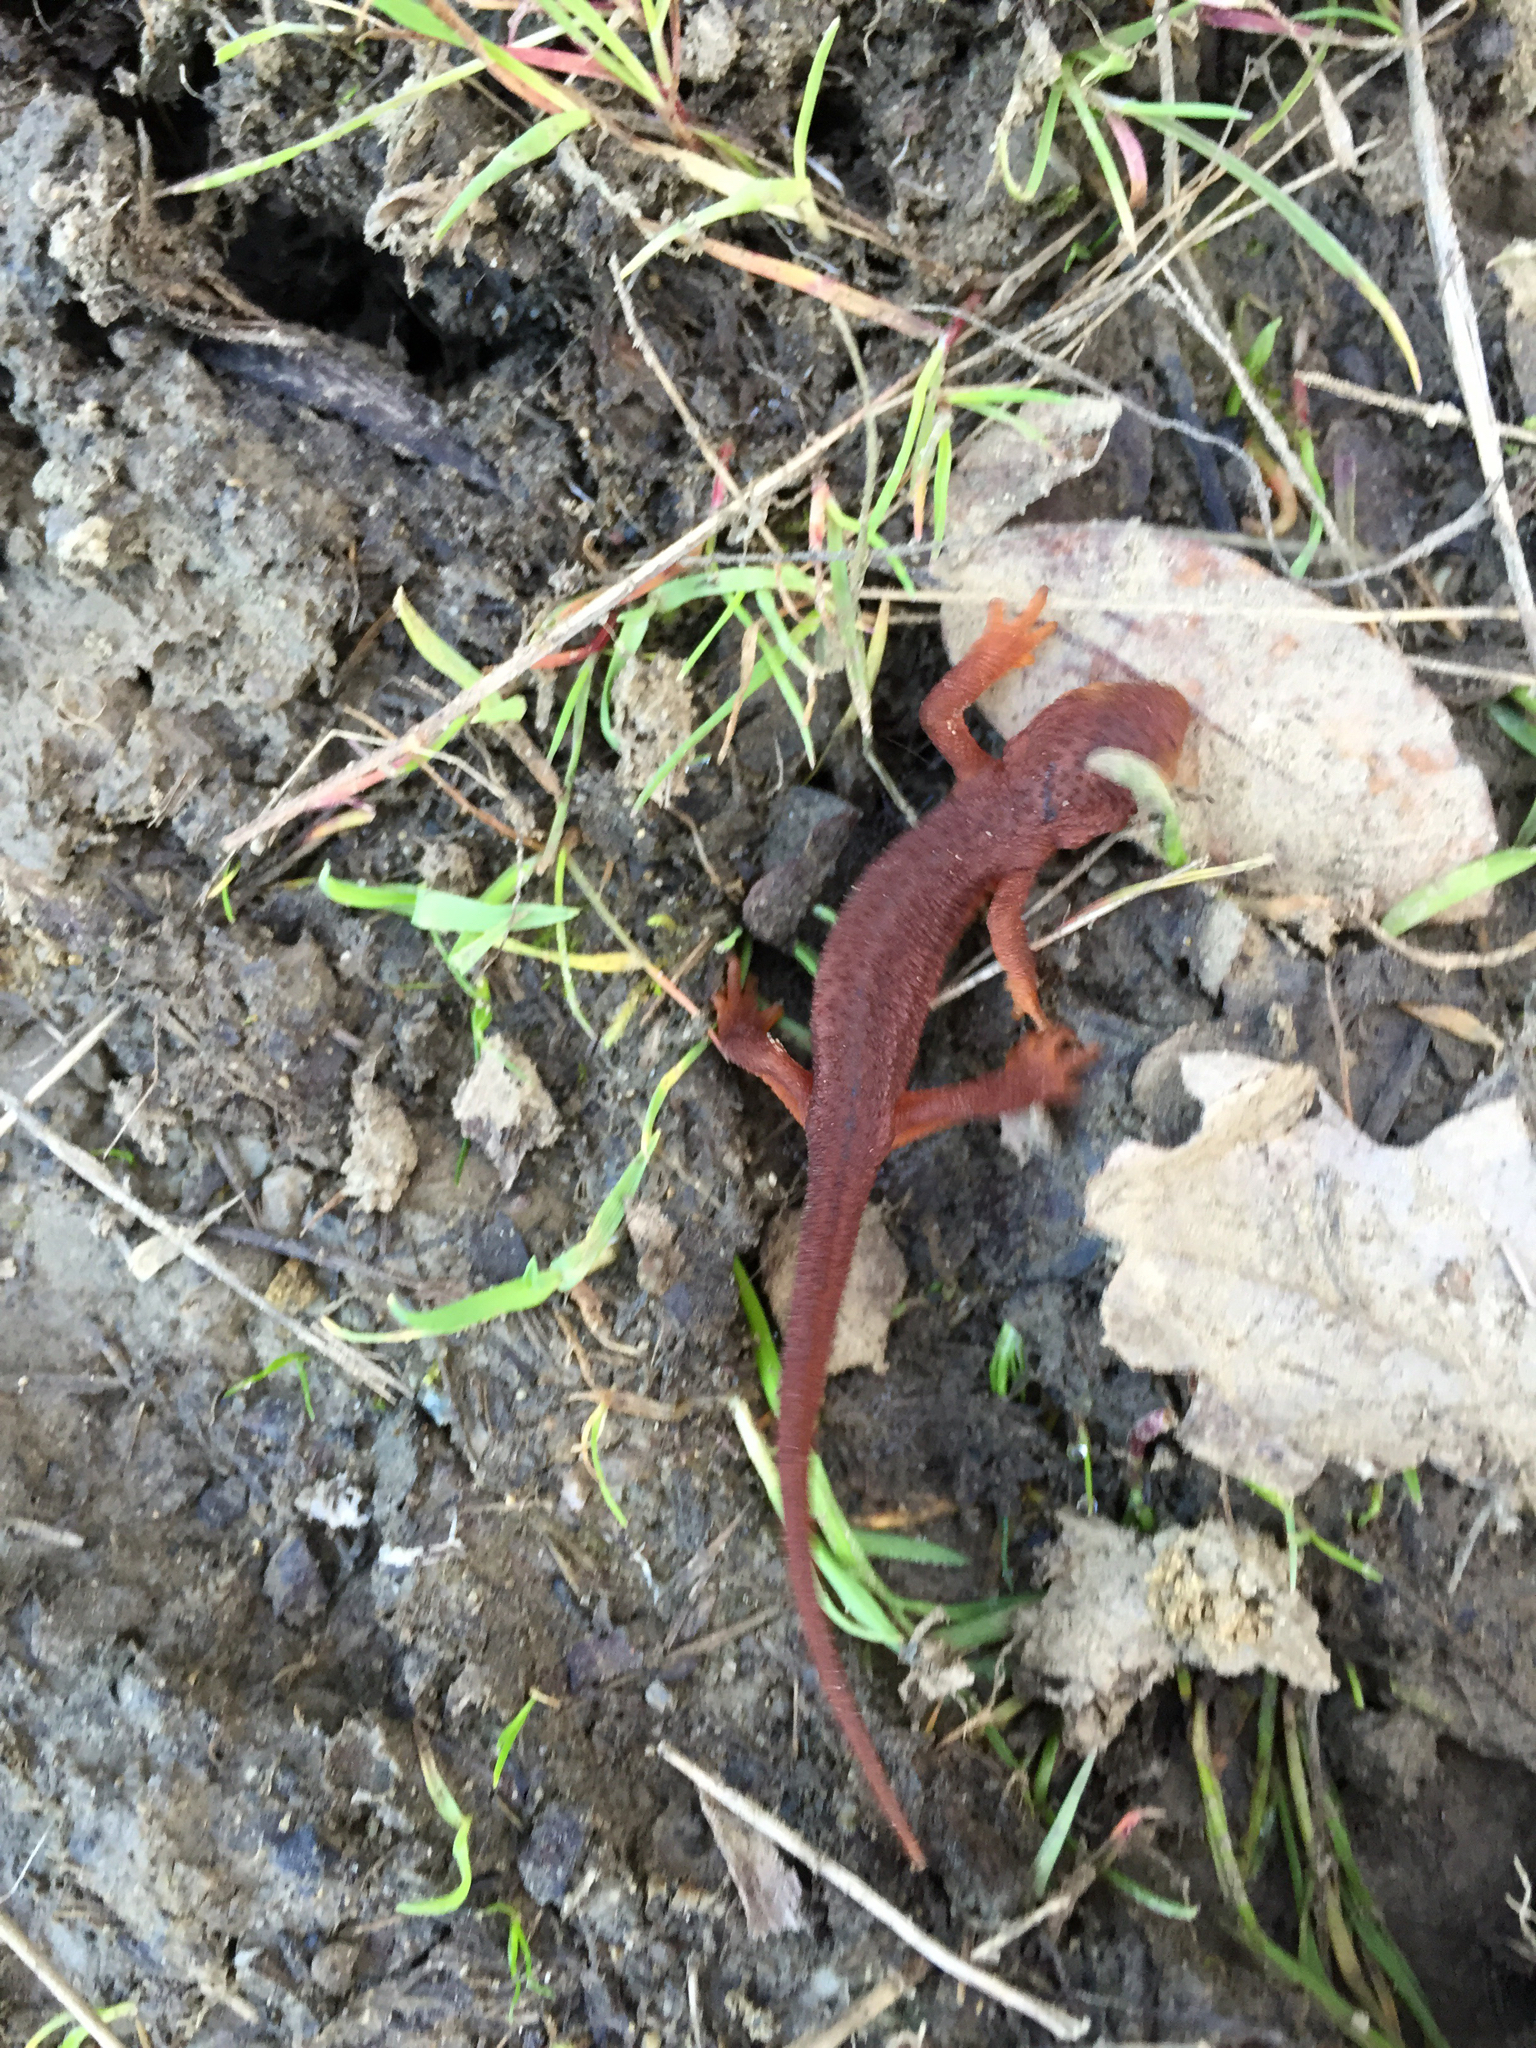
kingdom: Animalia
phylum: Chordata
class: Amphibia
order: Caudata
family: Salamandridae
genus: Taricha
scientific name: Taricha torosa
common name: California newt
